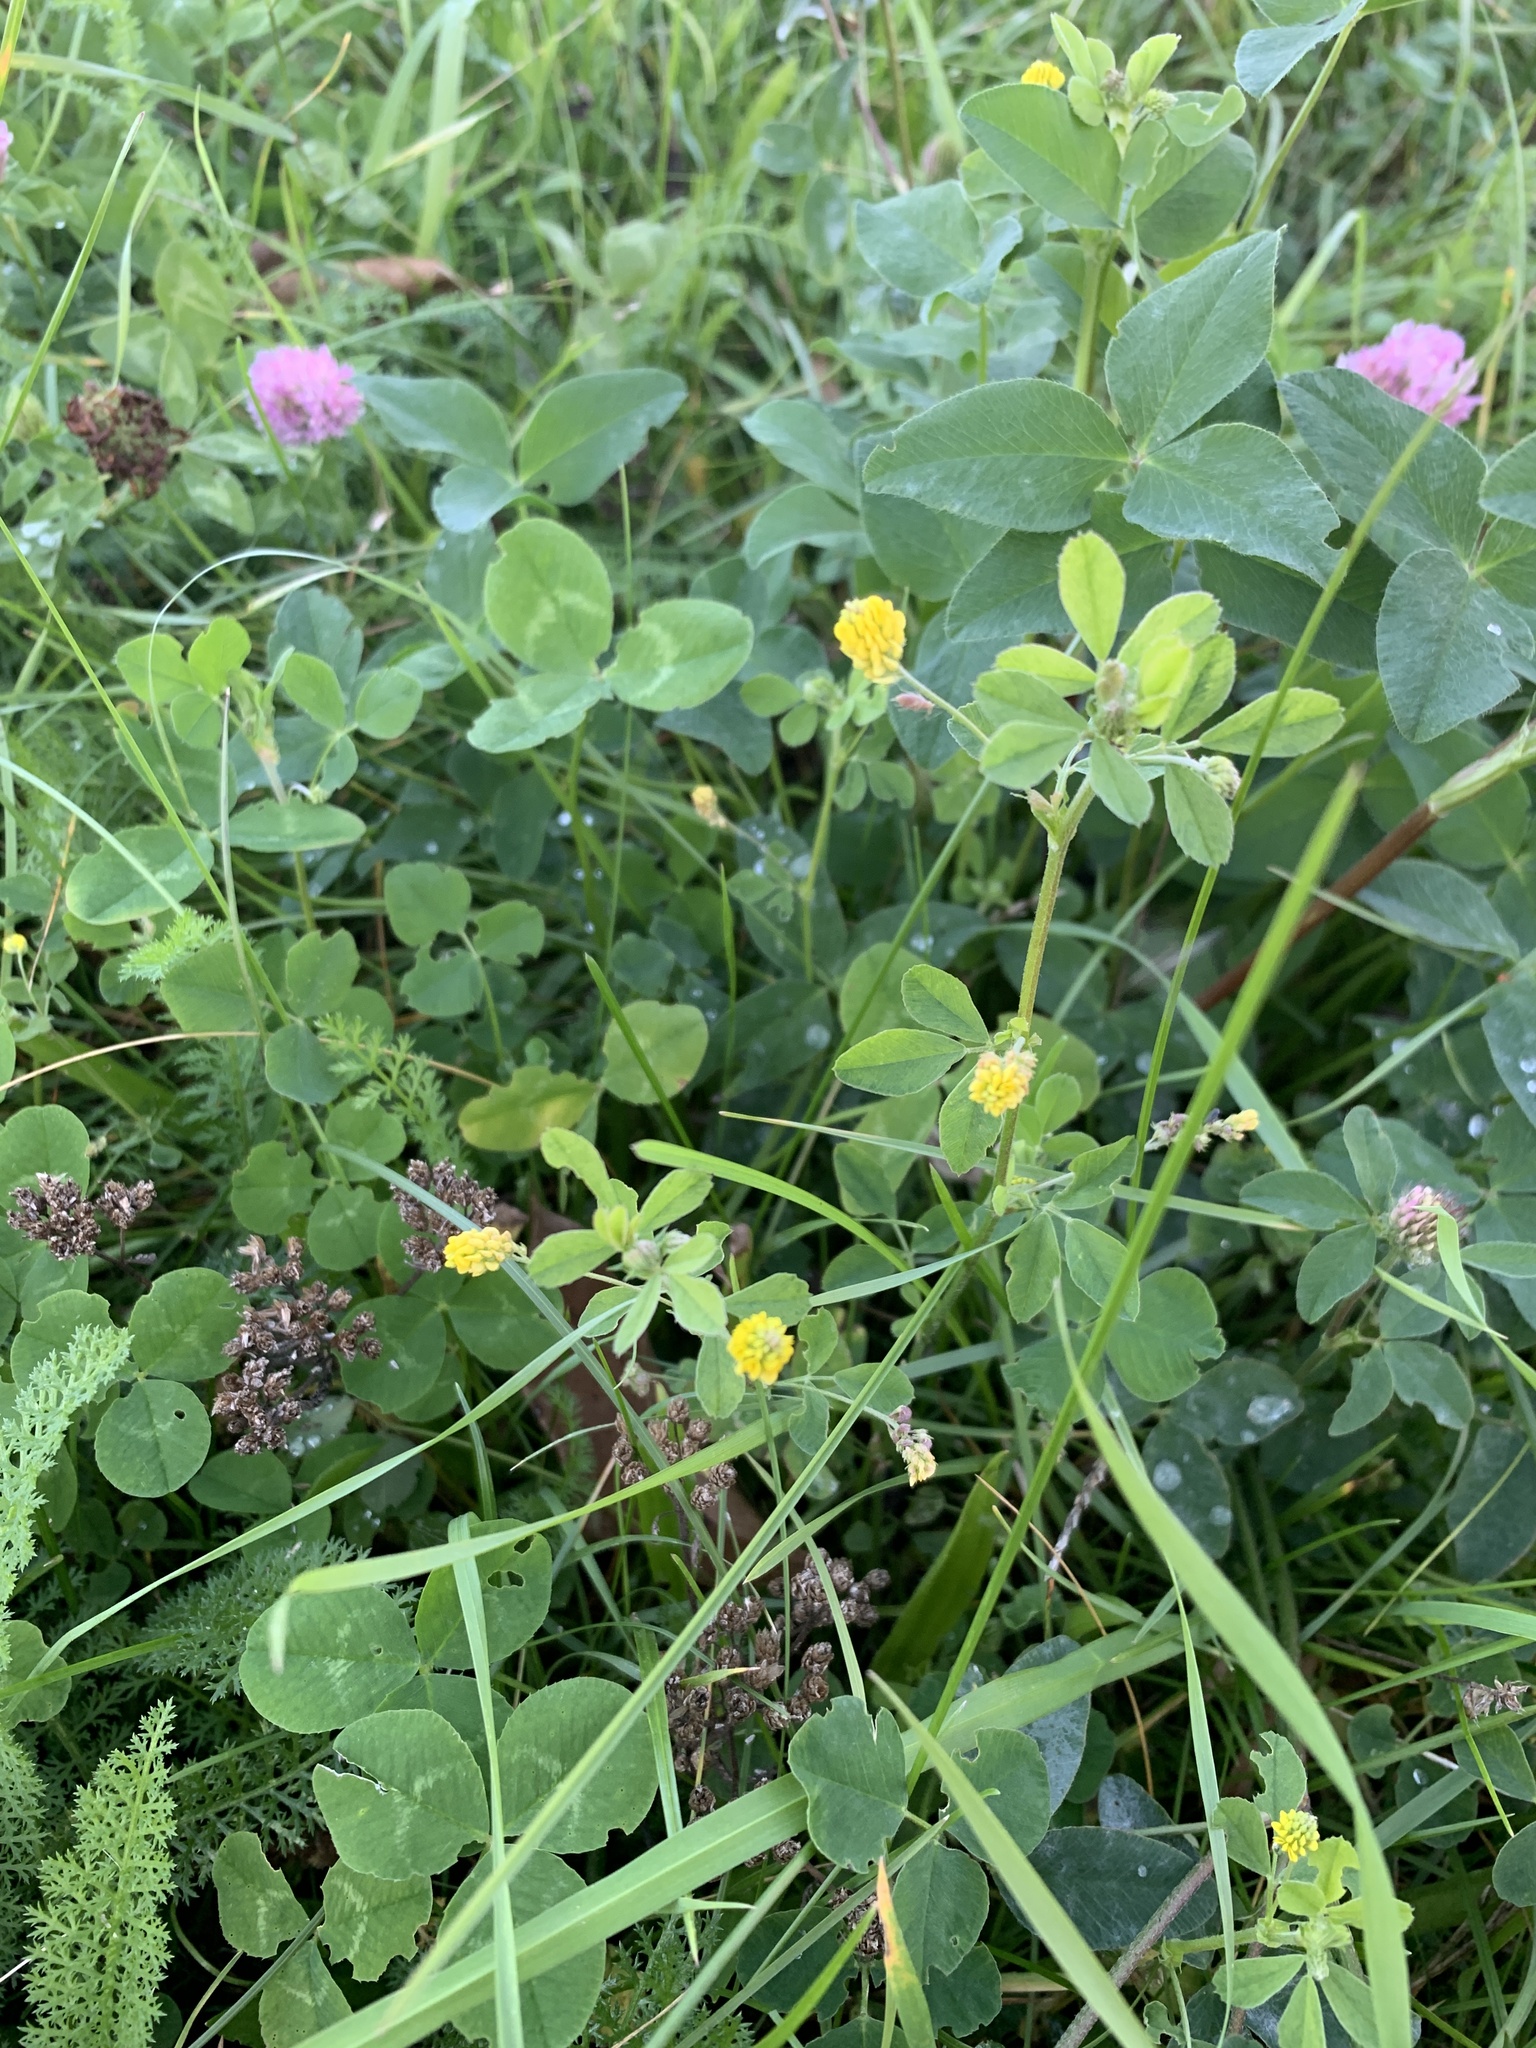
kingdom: Plantae
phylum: Tracheophyta
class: Magnoliopsida
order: Fabales
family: Fabaceae
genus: Medicago
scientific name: Medicago lupulina
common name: Black medick
